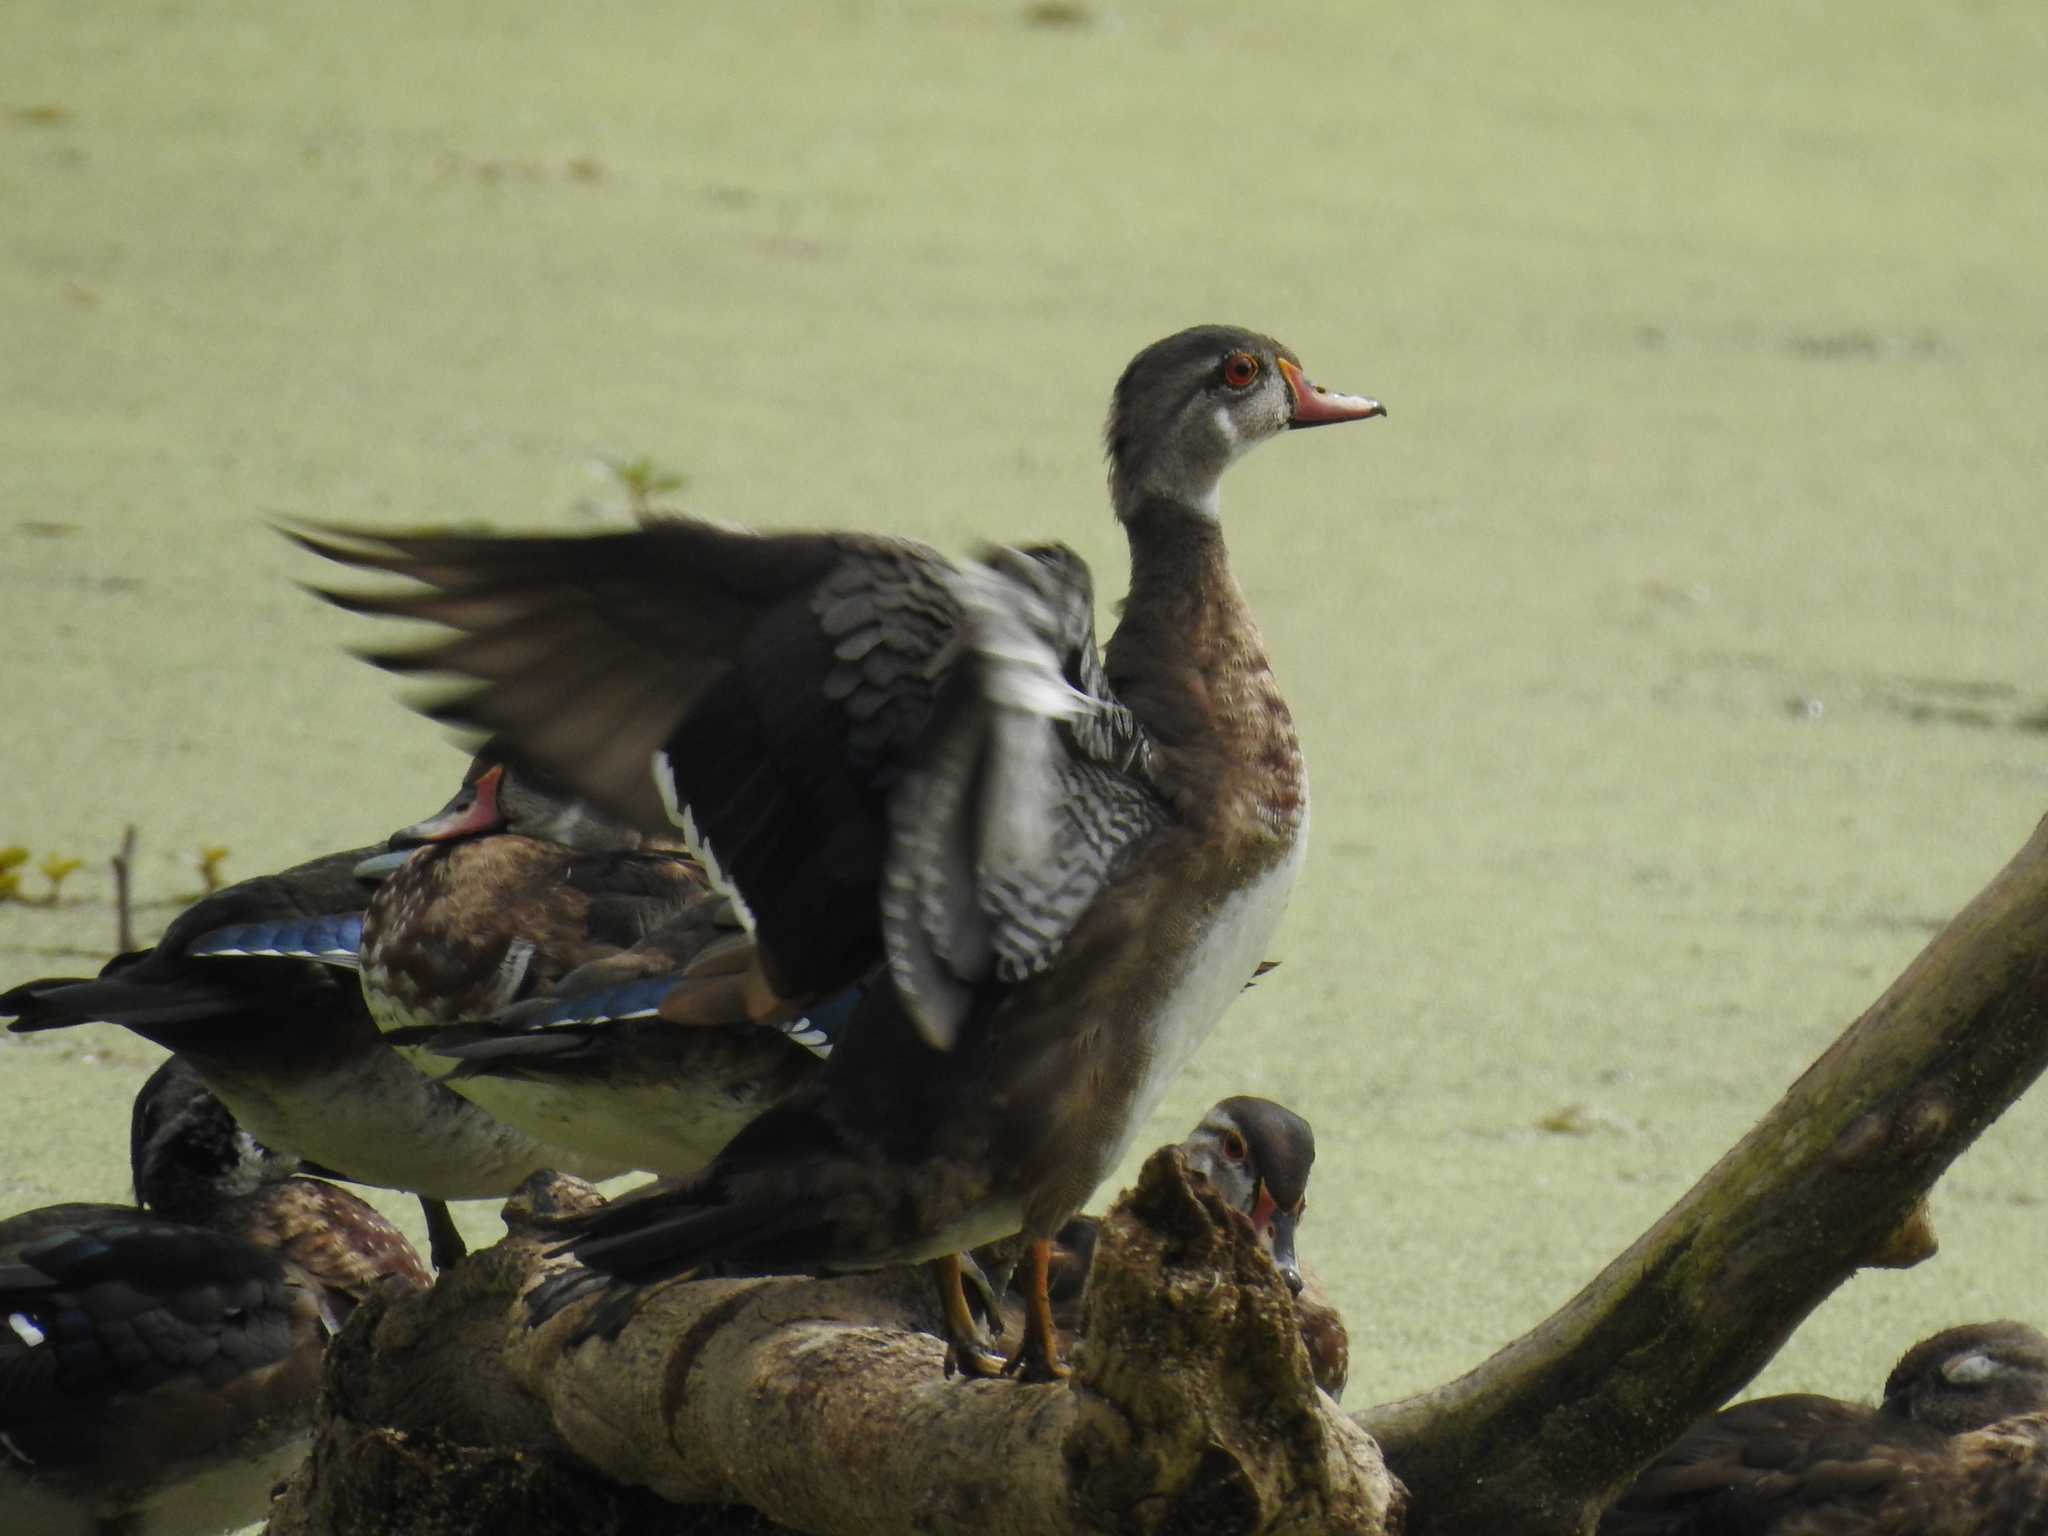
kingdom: Animalia
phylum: Chordata
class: Aves
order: Anseriformes
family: Anatidae
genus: Aix
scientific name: Aix sponsa
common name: Wood duck
